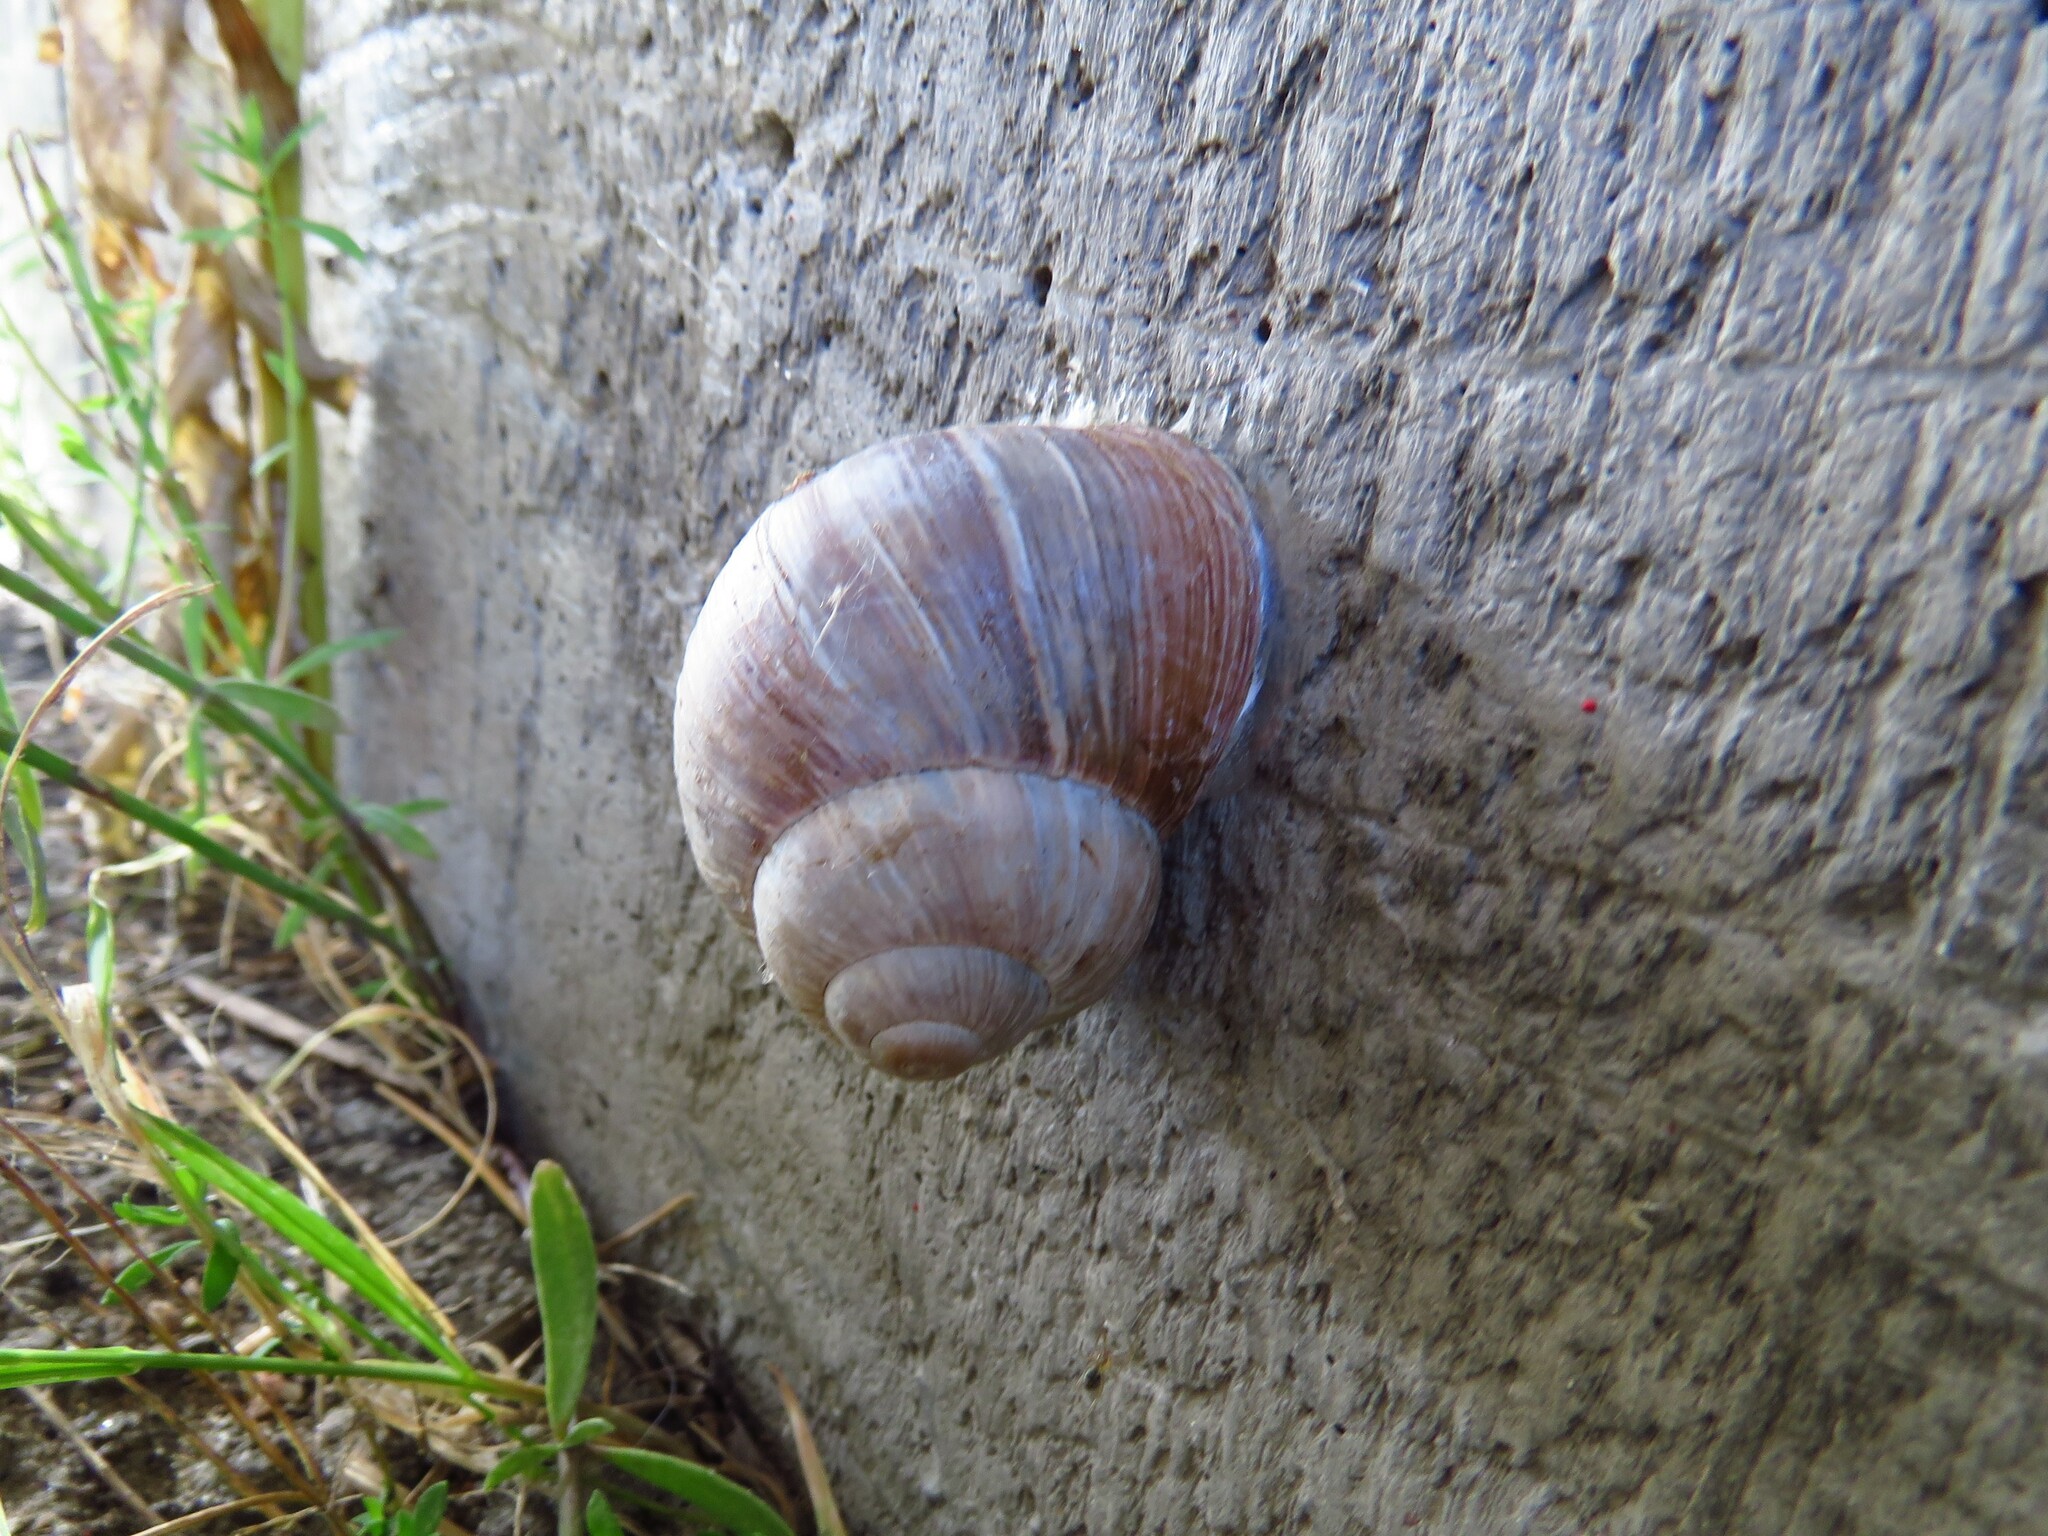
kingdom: Animalia
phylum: Mollusca
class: Gastropoda
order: Stylommatophora
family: Helicidae
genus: Helix
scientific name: Helix pomatia
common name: Roman snail
